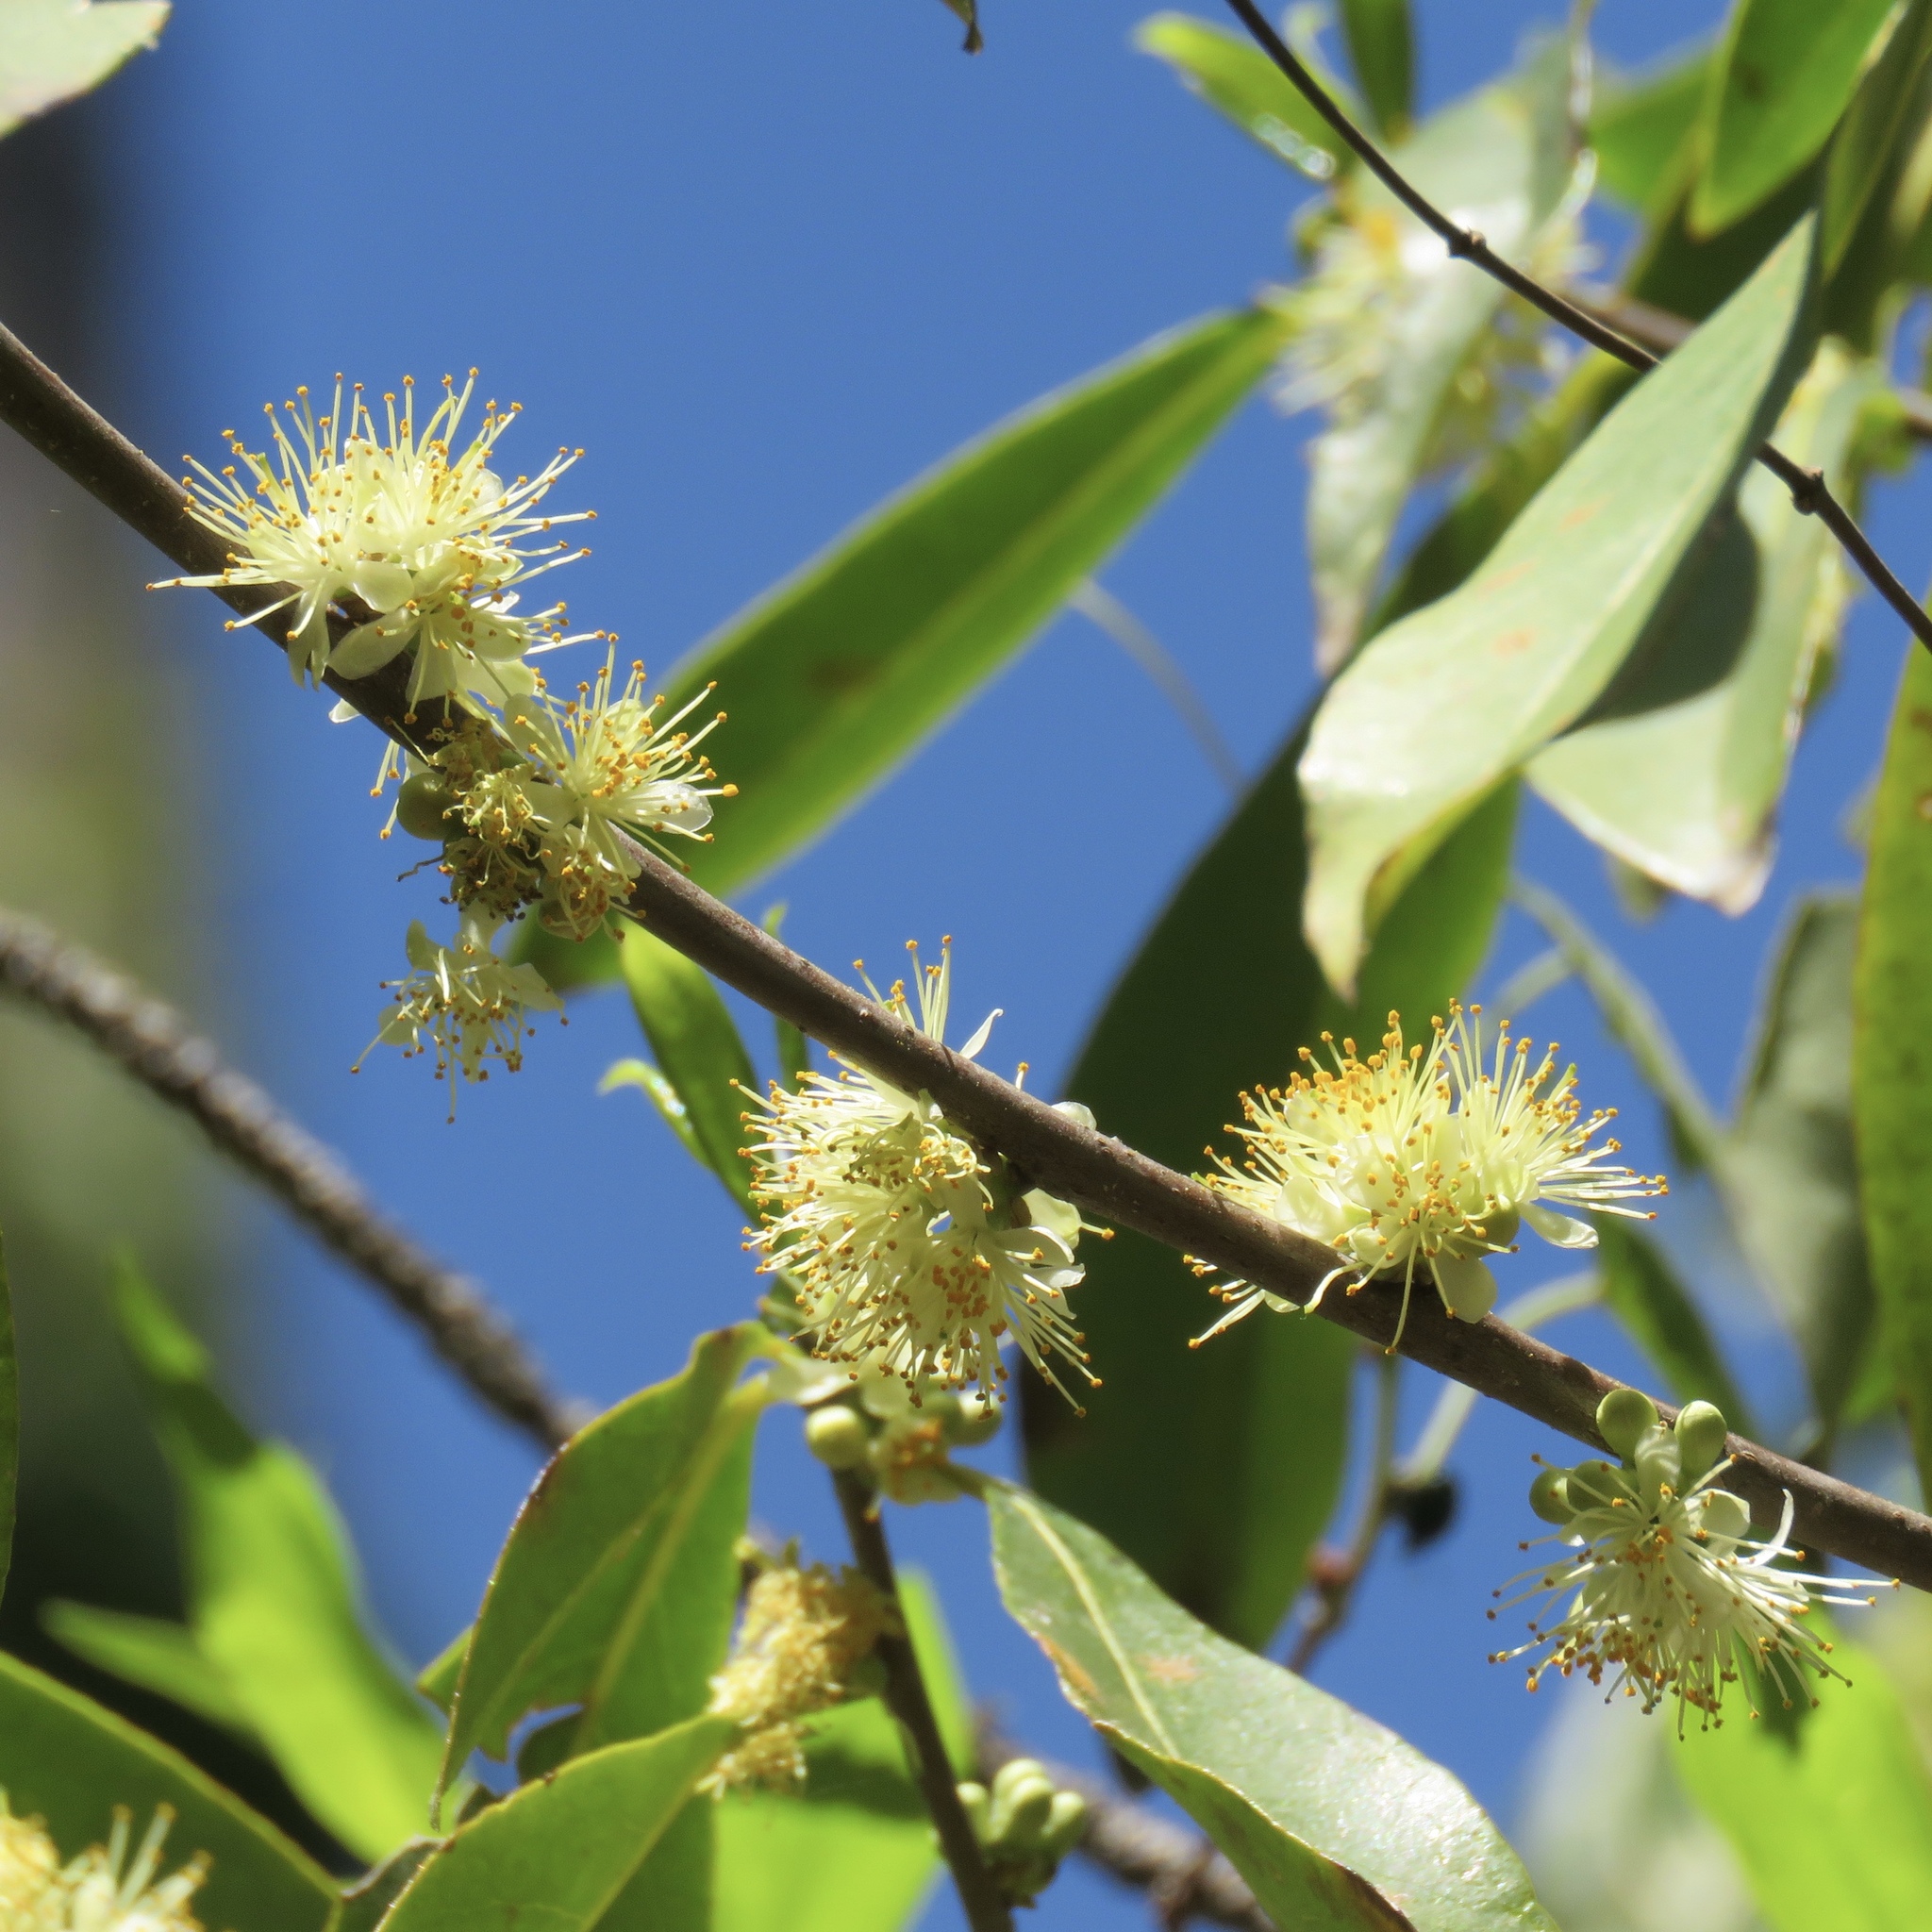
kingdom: Plantae
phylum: Tracheophyta
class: Magnoliopsida
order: Ericales
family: Symplocaceae
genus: Symplocos
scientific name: Symplocos tinctoria
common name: Horse-sugar
